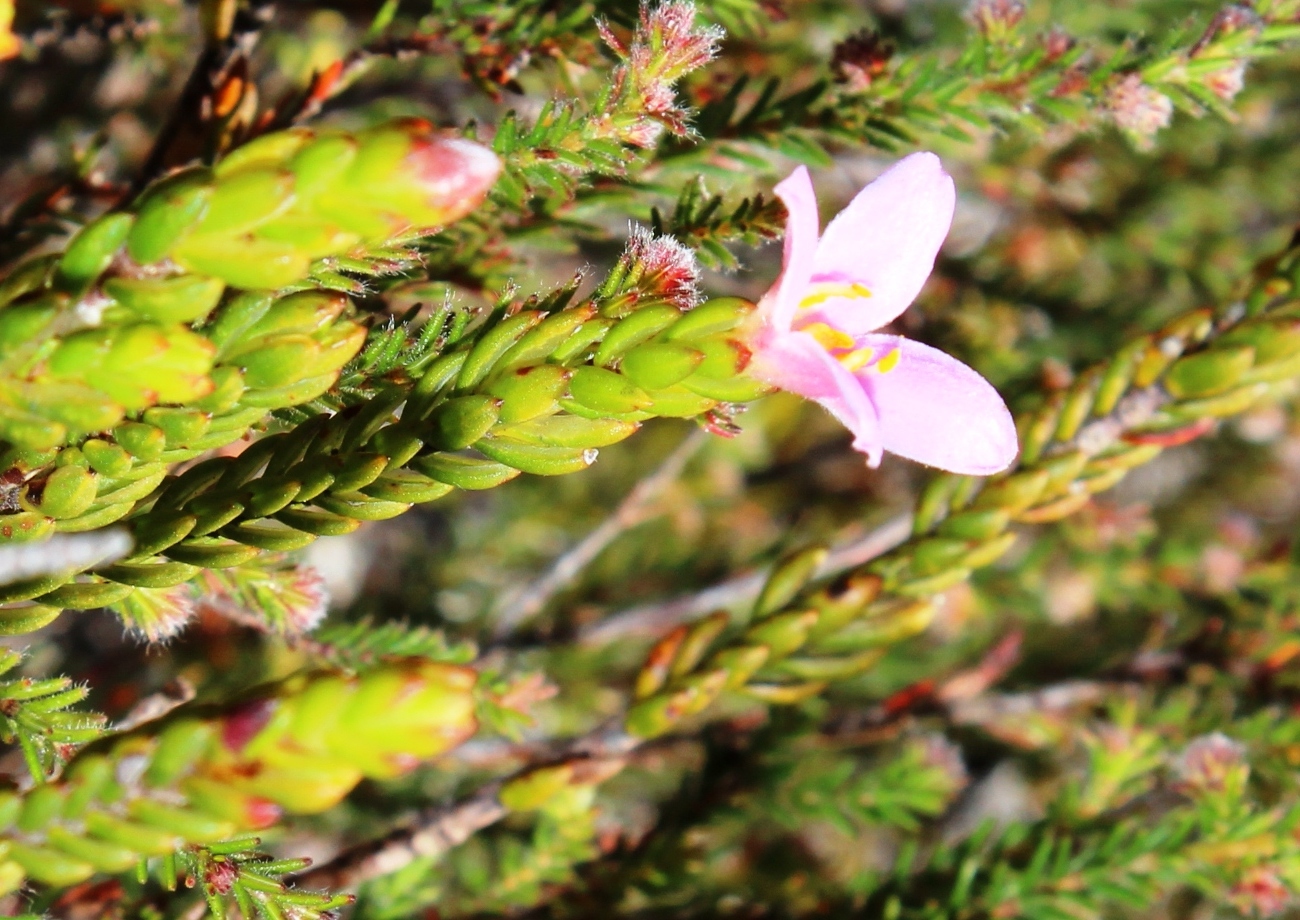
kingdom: Plantae
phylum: Tracheophyta
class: Magnoliopsida
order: Malvales
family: Thymelaeaceae
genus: Lachnaea
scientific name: Lachnaea grandiflora
